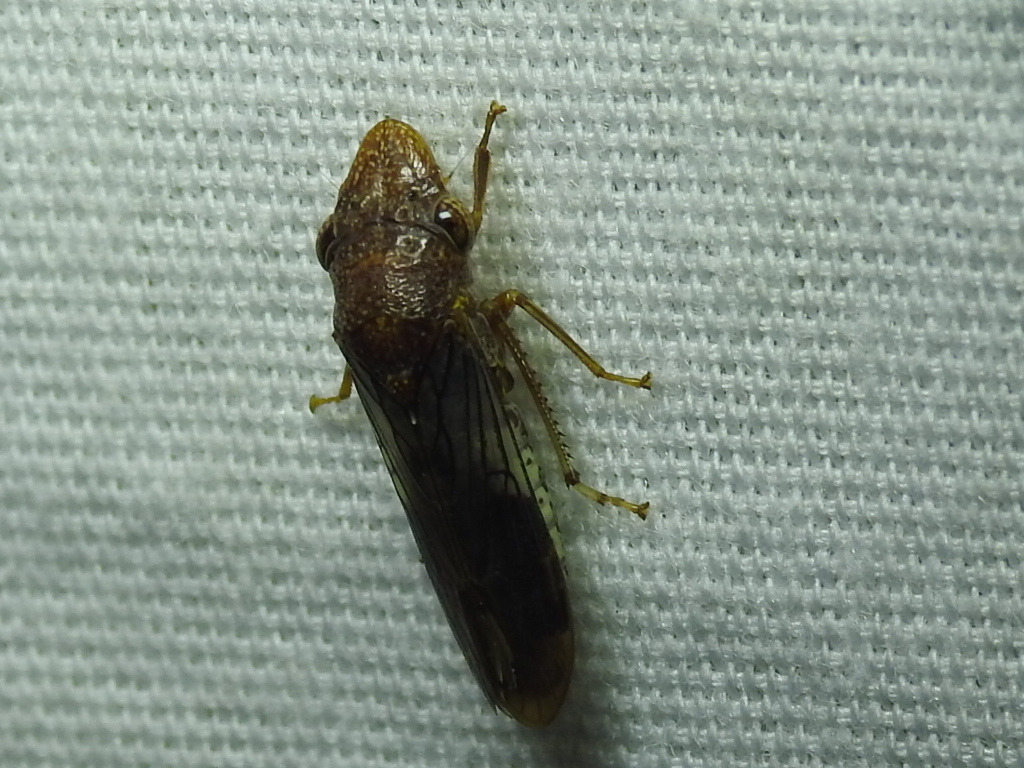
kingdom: Animalia
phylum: Arthropoda
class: Insecta
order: Hemiptera
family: Cicadellidae
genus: Homalodisca
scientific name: Homalodisca vitripennis
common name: Glassy-winged sharpshooter
